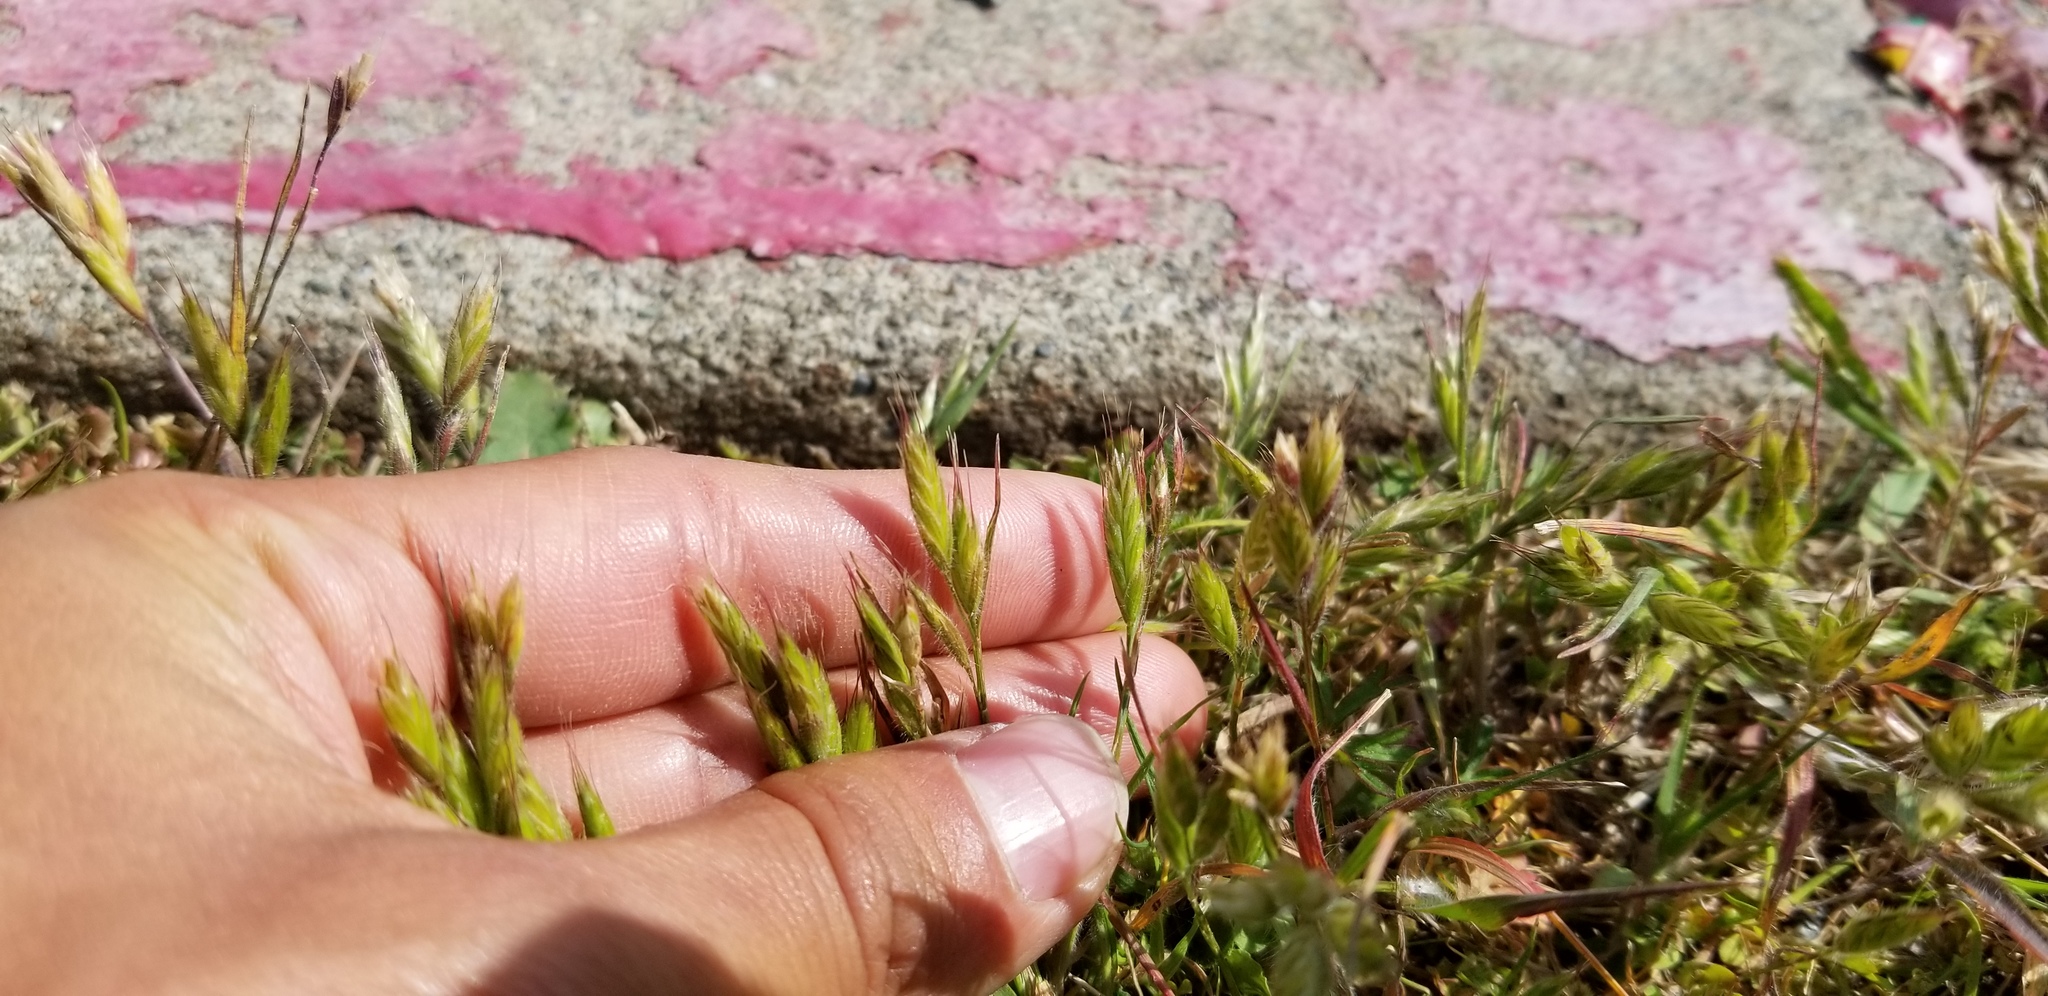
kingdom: Plantae
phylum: Tracheophyta
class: Liliopsida
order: Poales
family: Poaceae
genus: Bromus
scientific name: Bromus hordeaceus
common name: Soft brome
